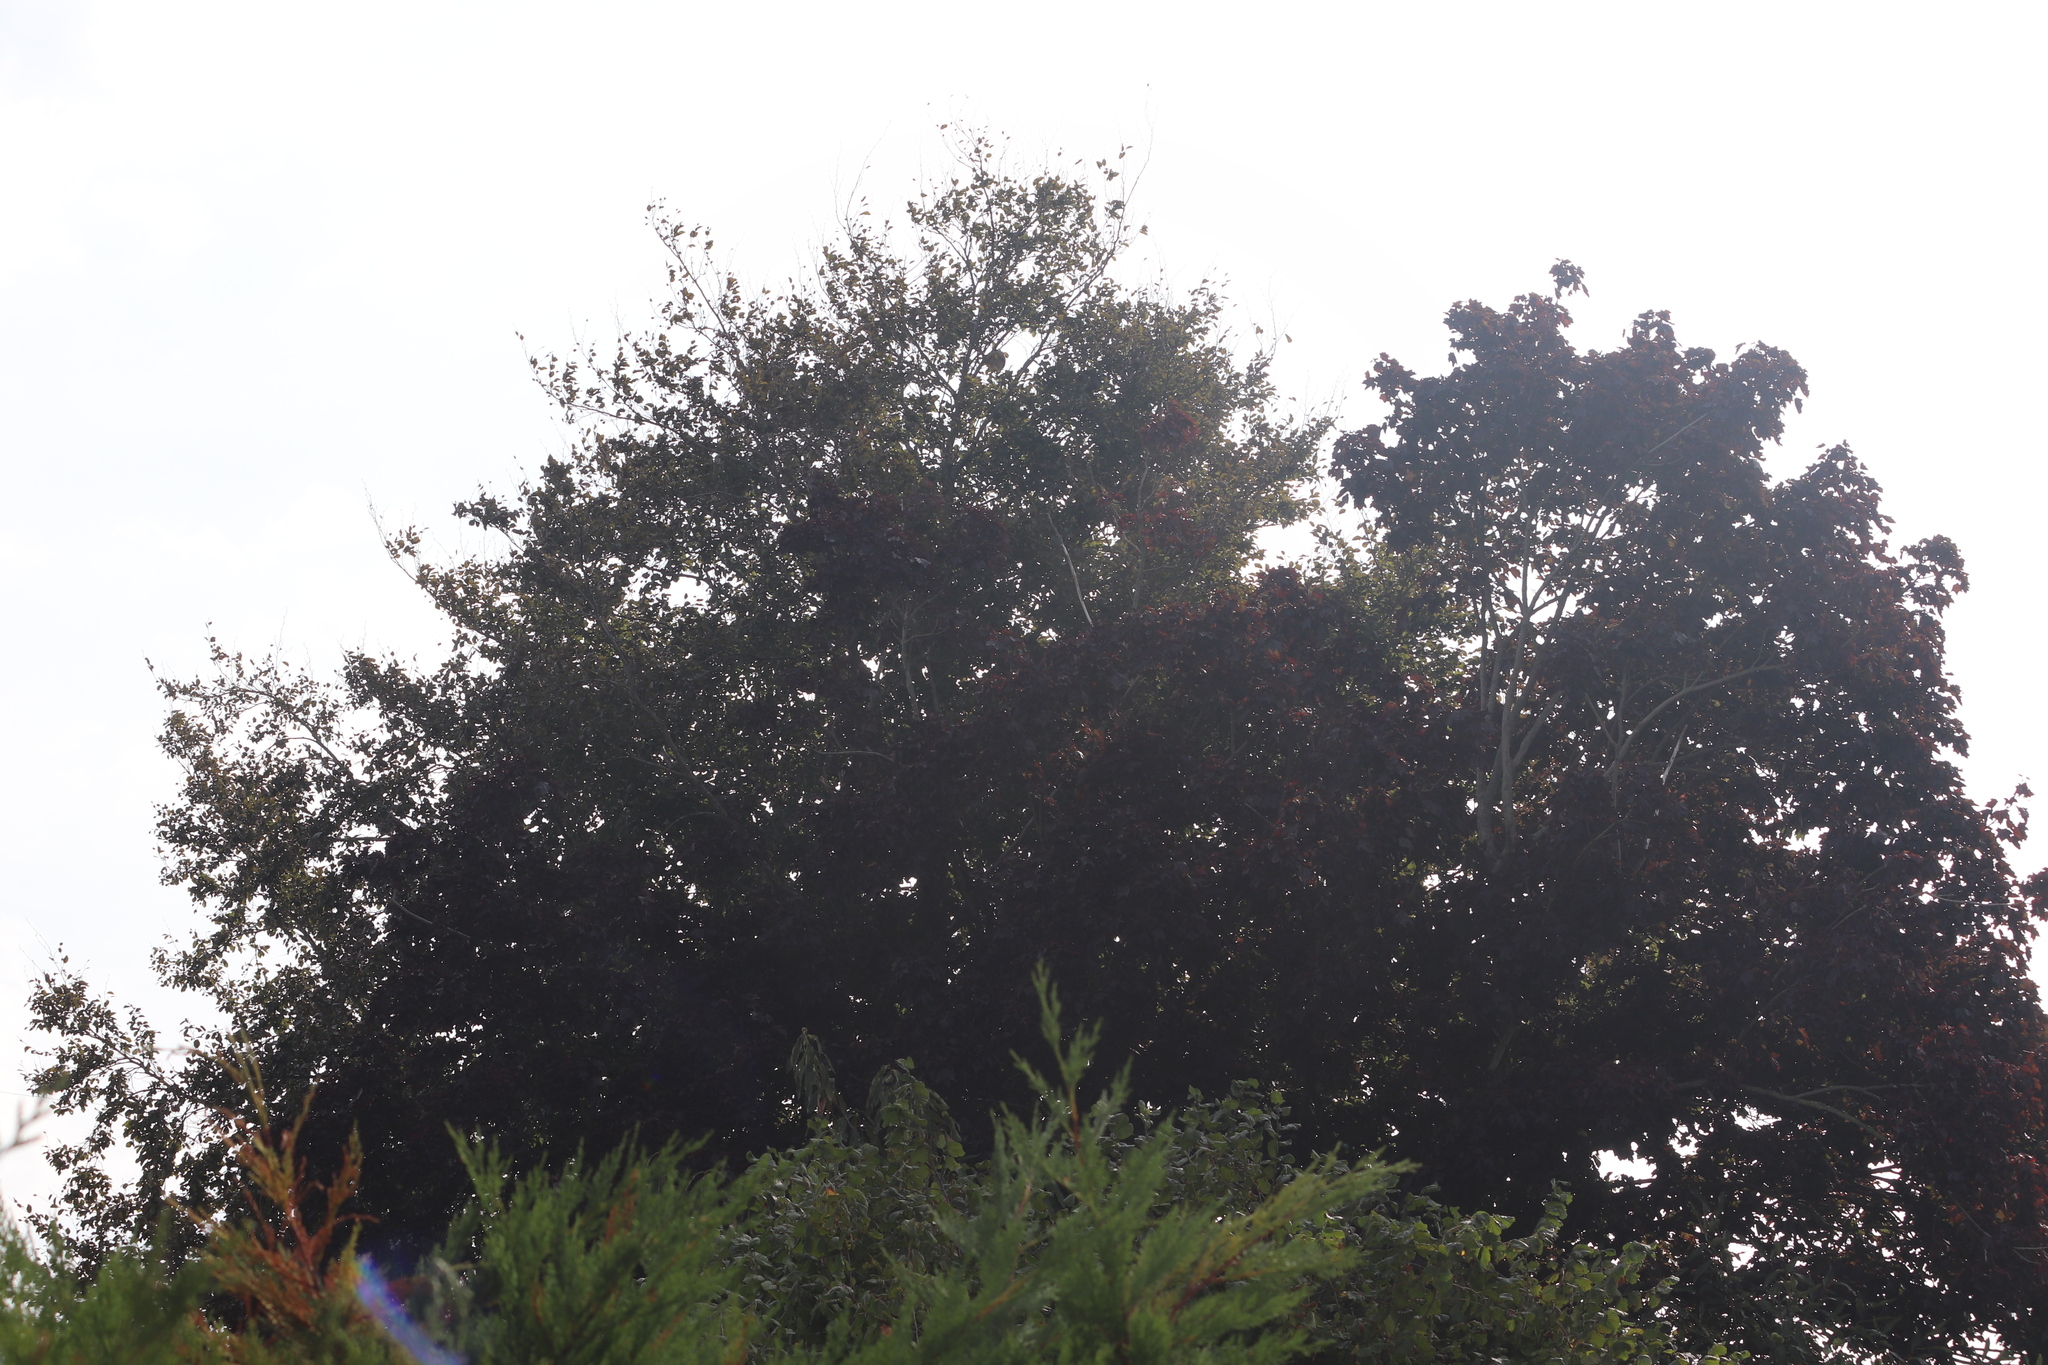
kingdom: Animalia
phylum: Arthropoda
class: Insecta
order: Hymenoptera
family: Vespidae
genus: Vespa
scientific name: Vespa velutina
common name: Asian hornet
